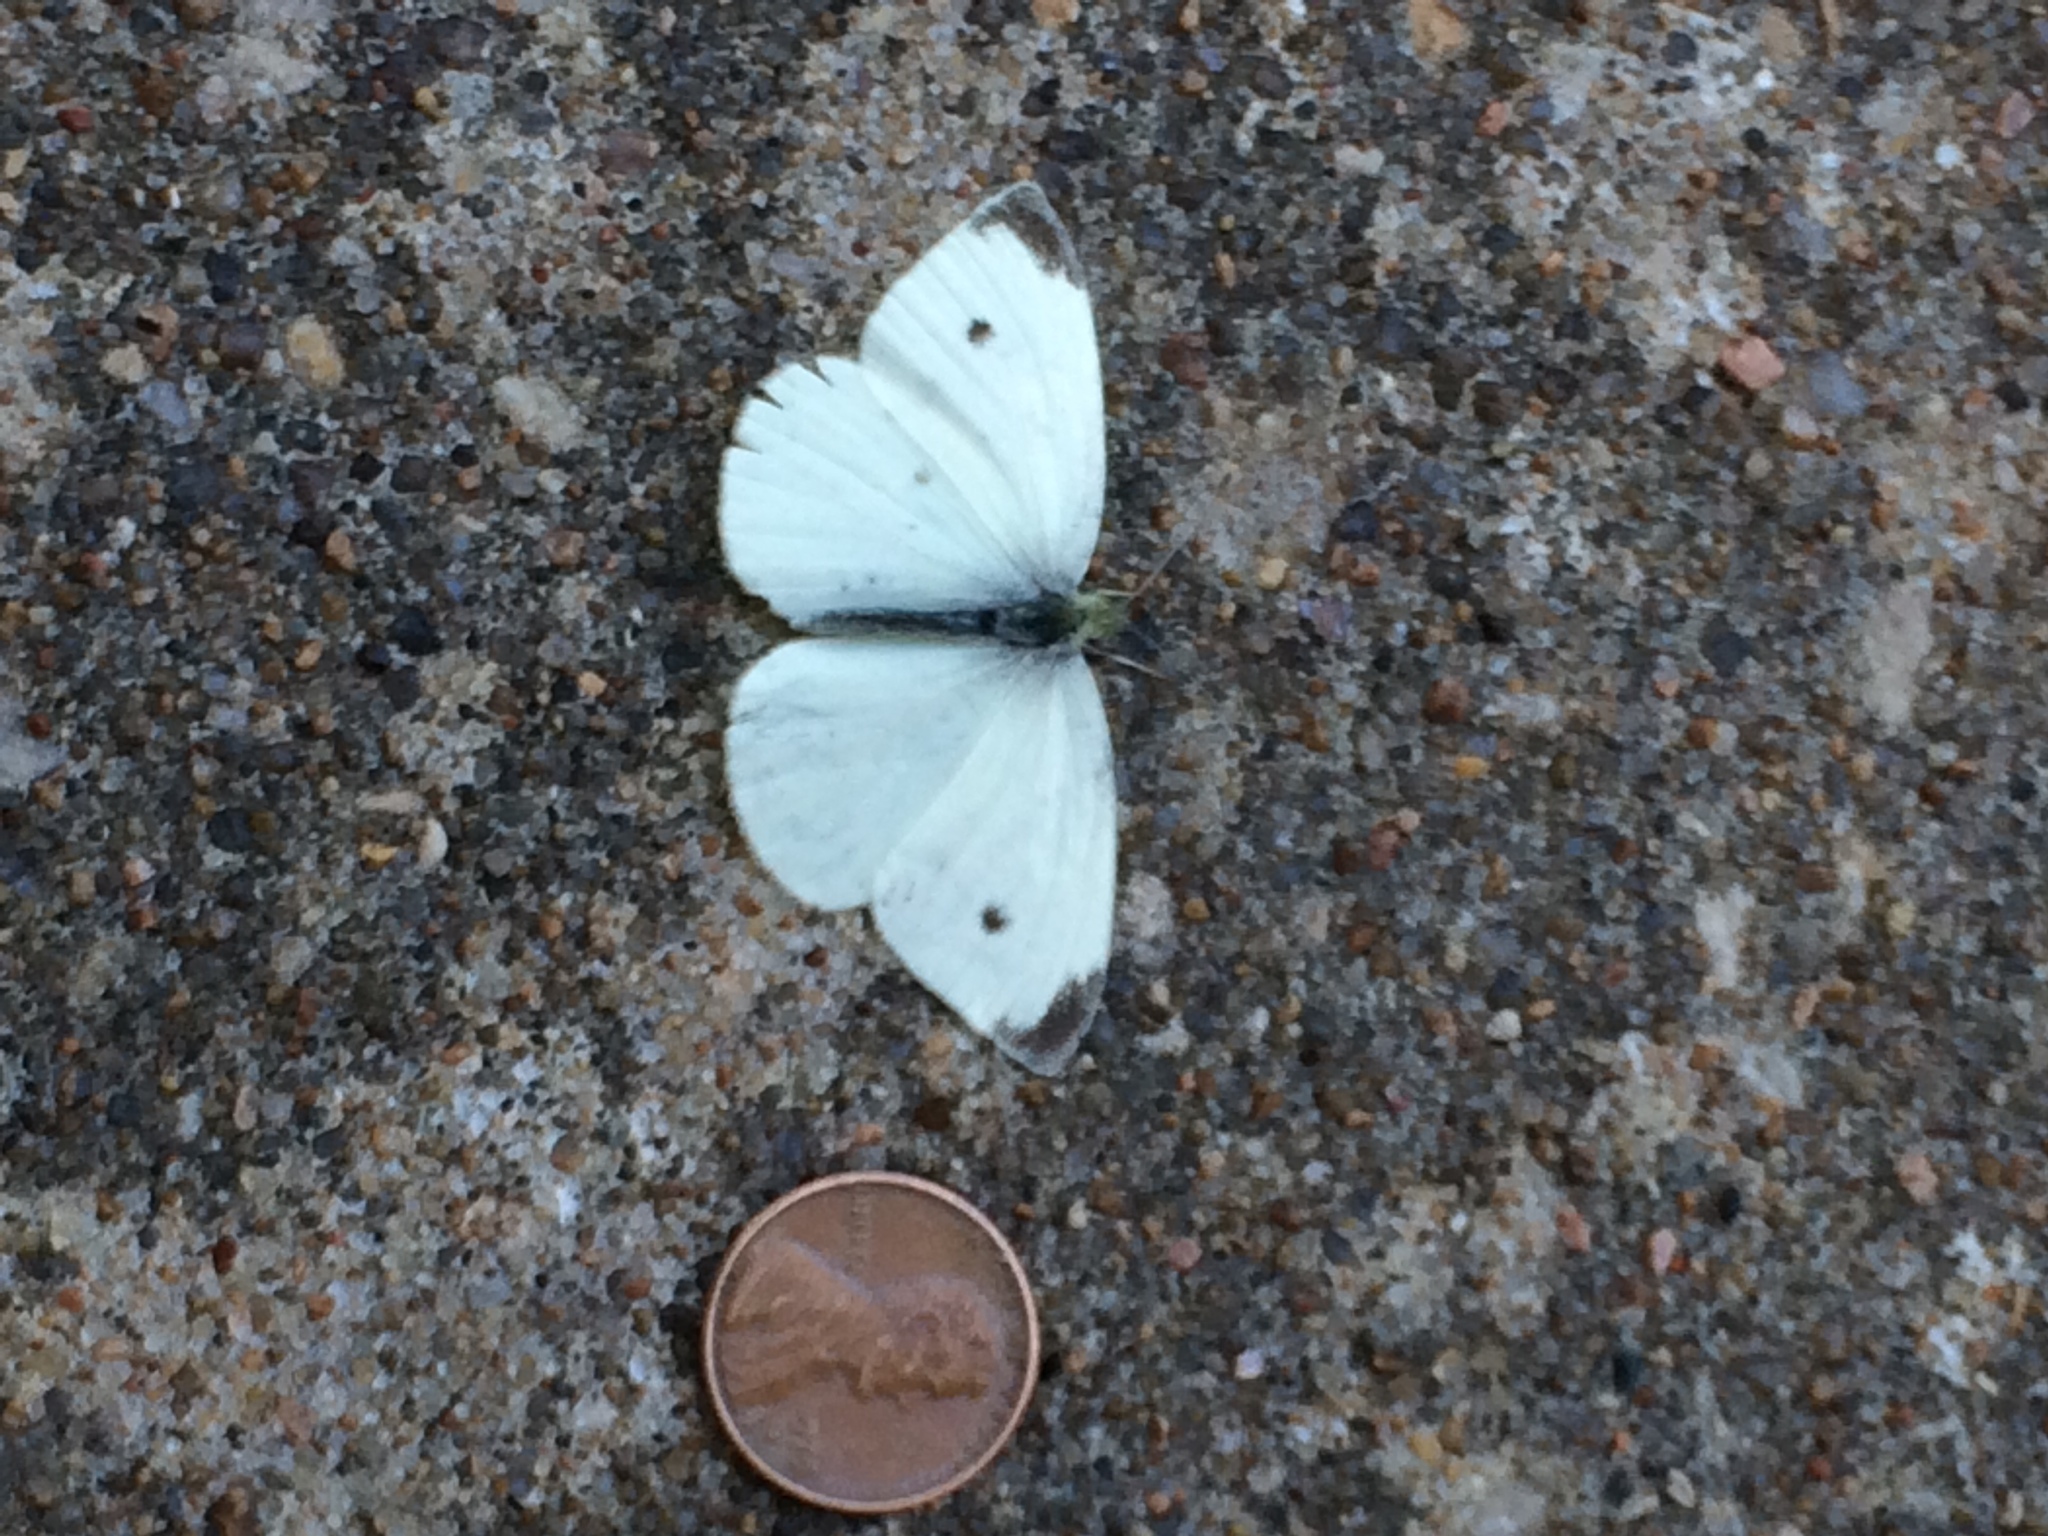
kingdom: Animalia
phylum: Arthropoda
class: Insecta
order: Lepidoptera
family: Pieridae
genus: Pieris
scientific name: Pieris rapae
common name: Small white
